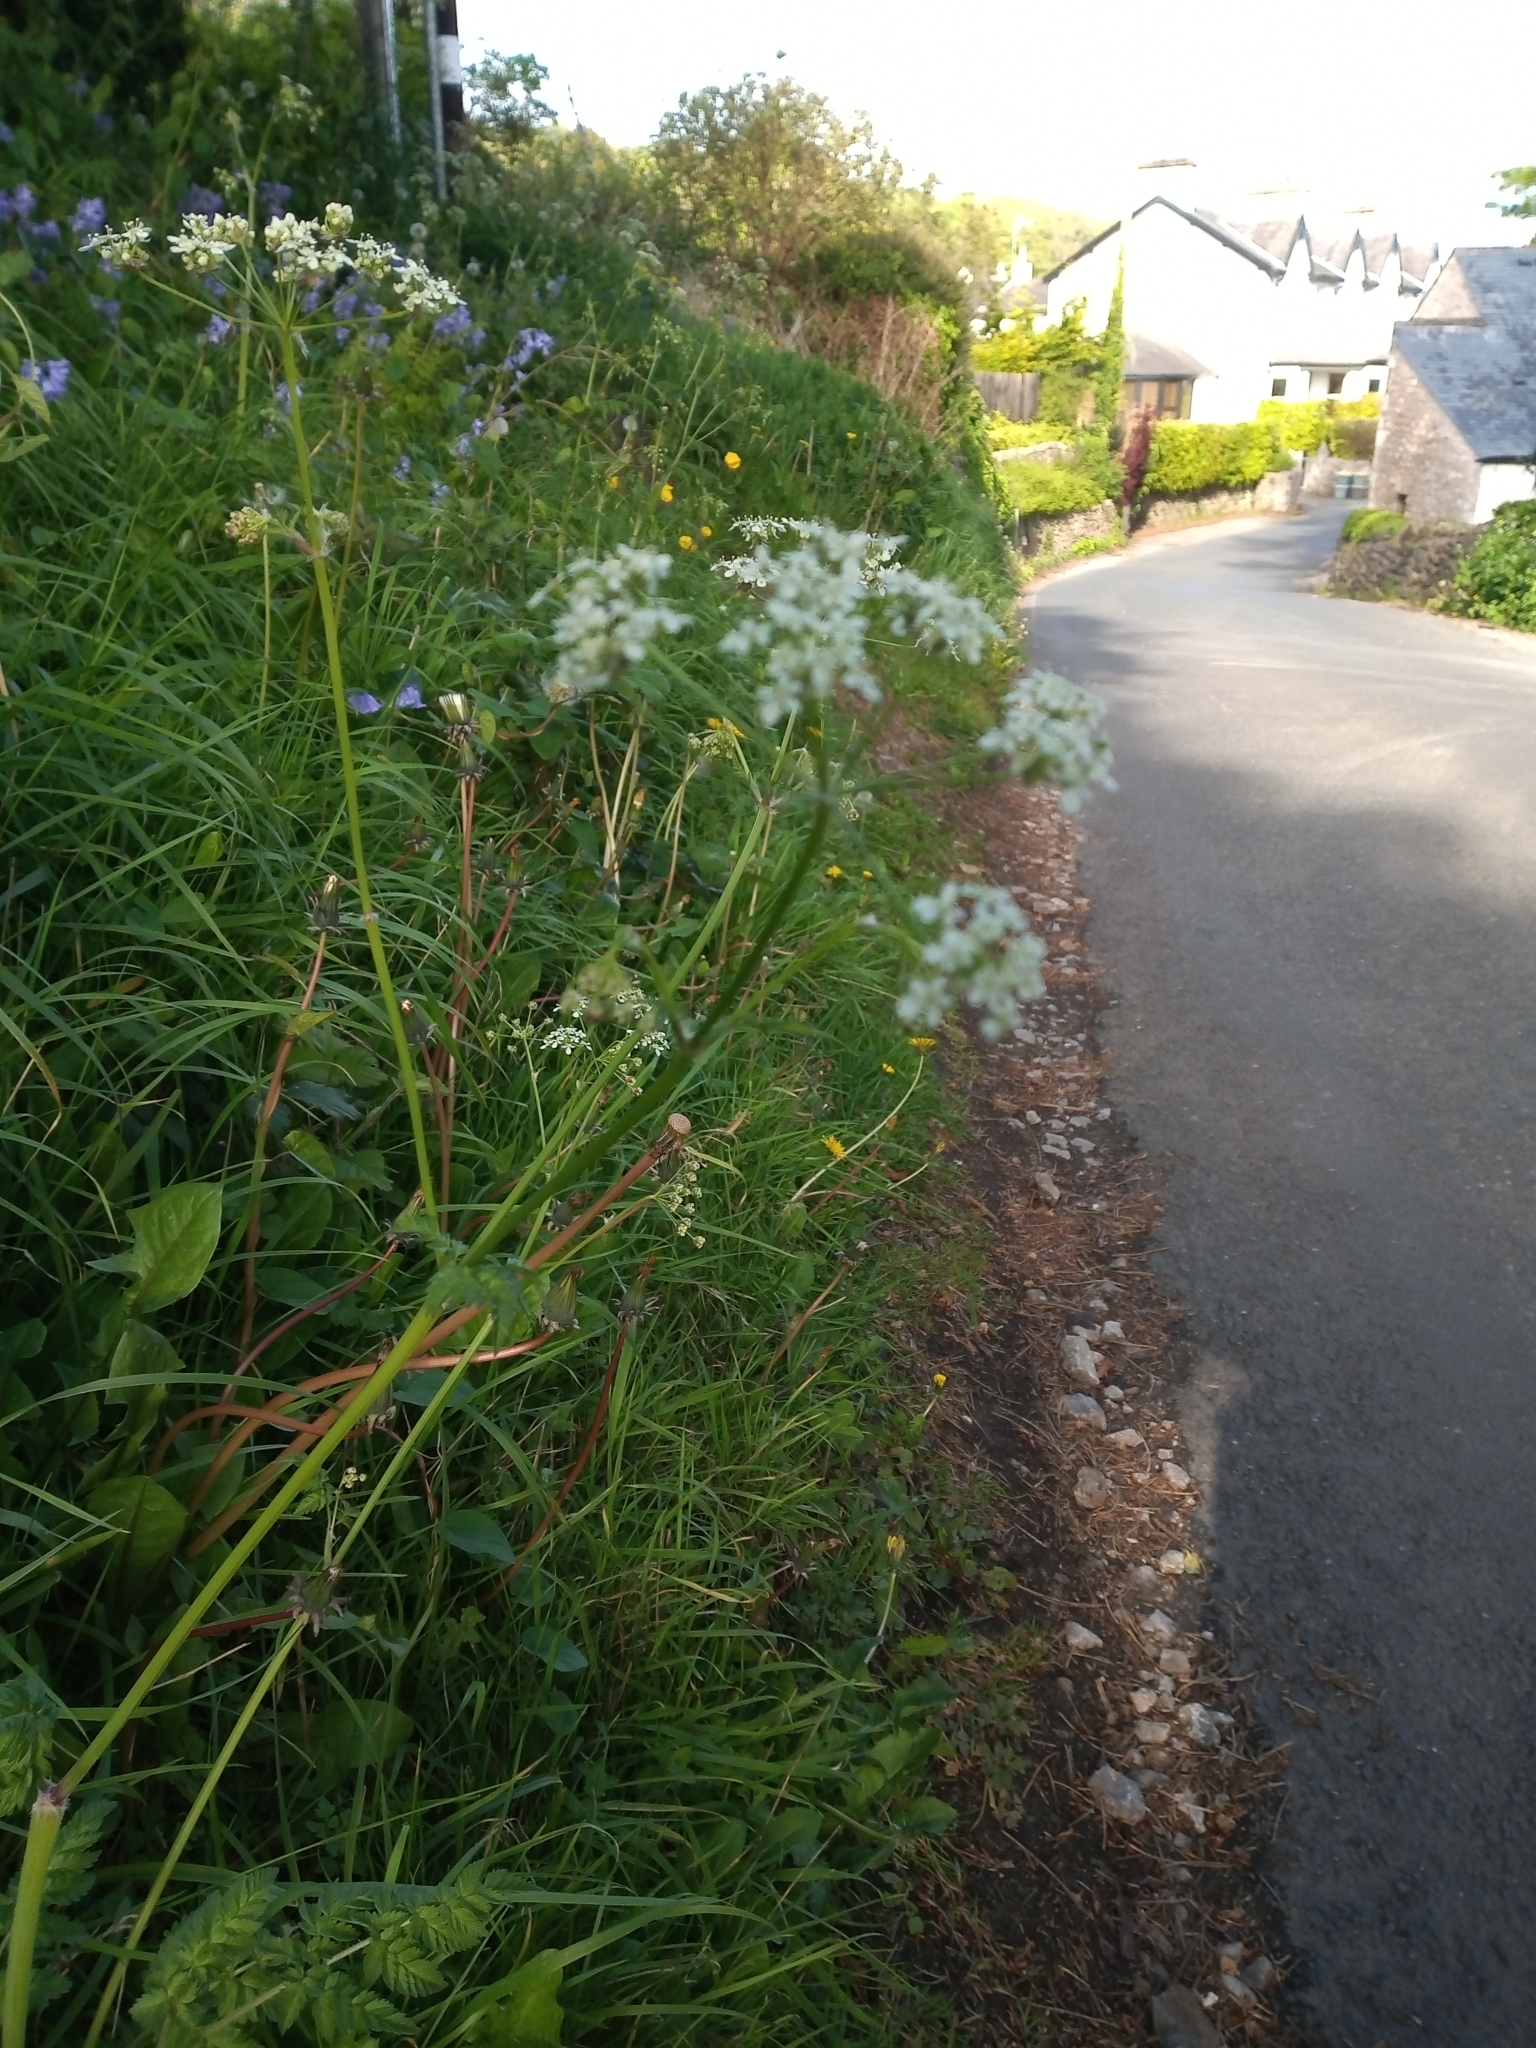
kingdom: Plantae
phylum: Tracheophyta
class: Magnoliopsida
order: Apiales
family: Apiaceae
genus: Anthriscus
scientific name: Anthriscus sylvestris
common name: Cow parsley
